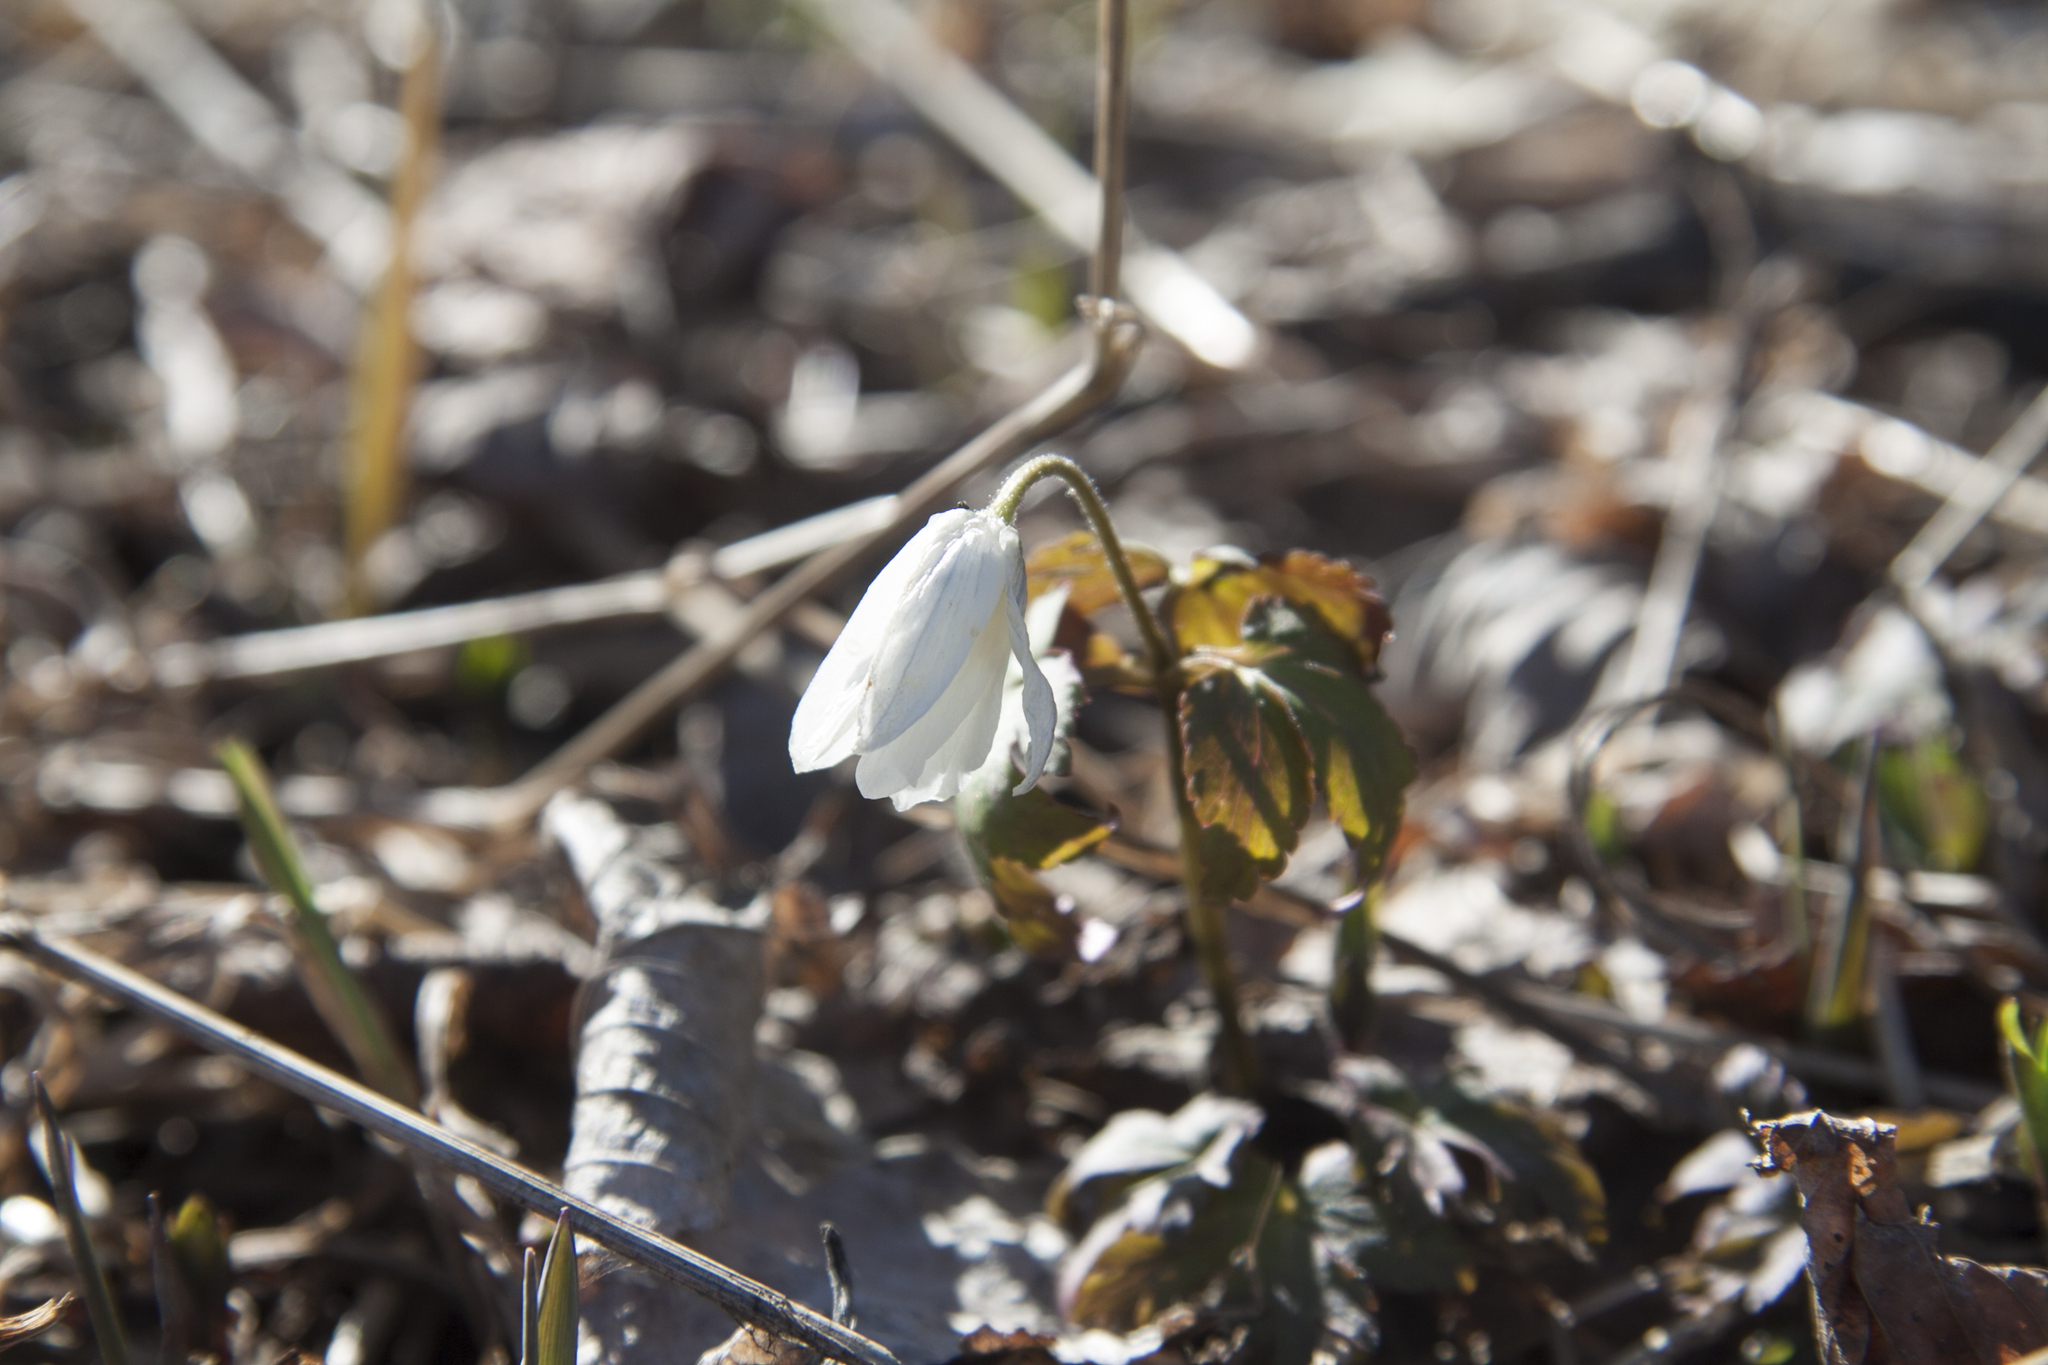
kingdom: Plantae
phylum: Tracheophyta
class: Magnoliopsida
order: Ranunculales
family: Ranunculaceae
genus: Anemone
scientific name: Anemone altaica
